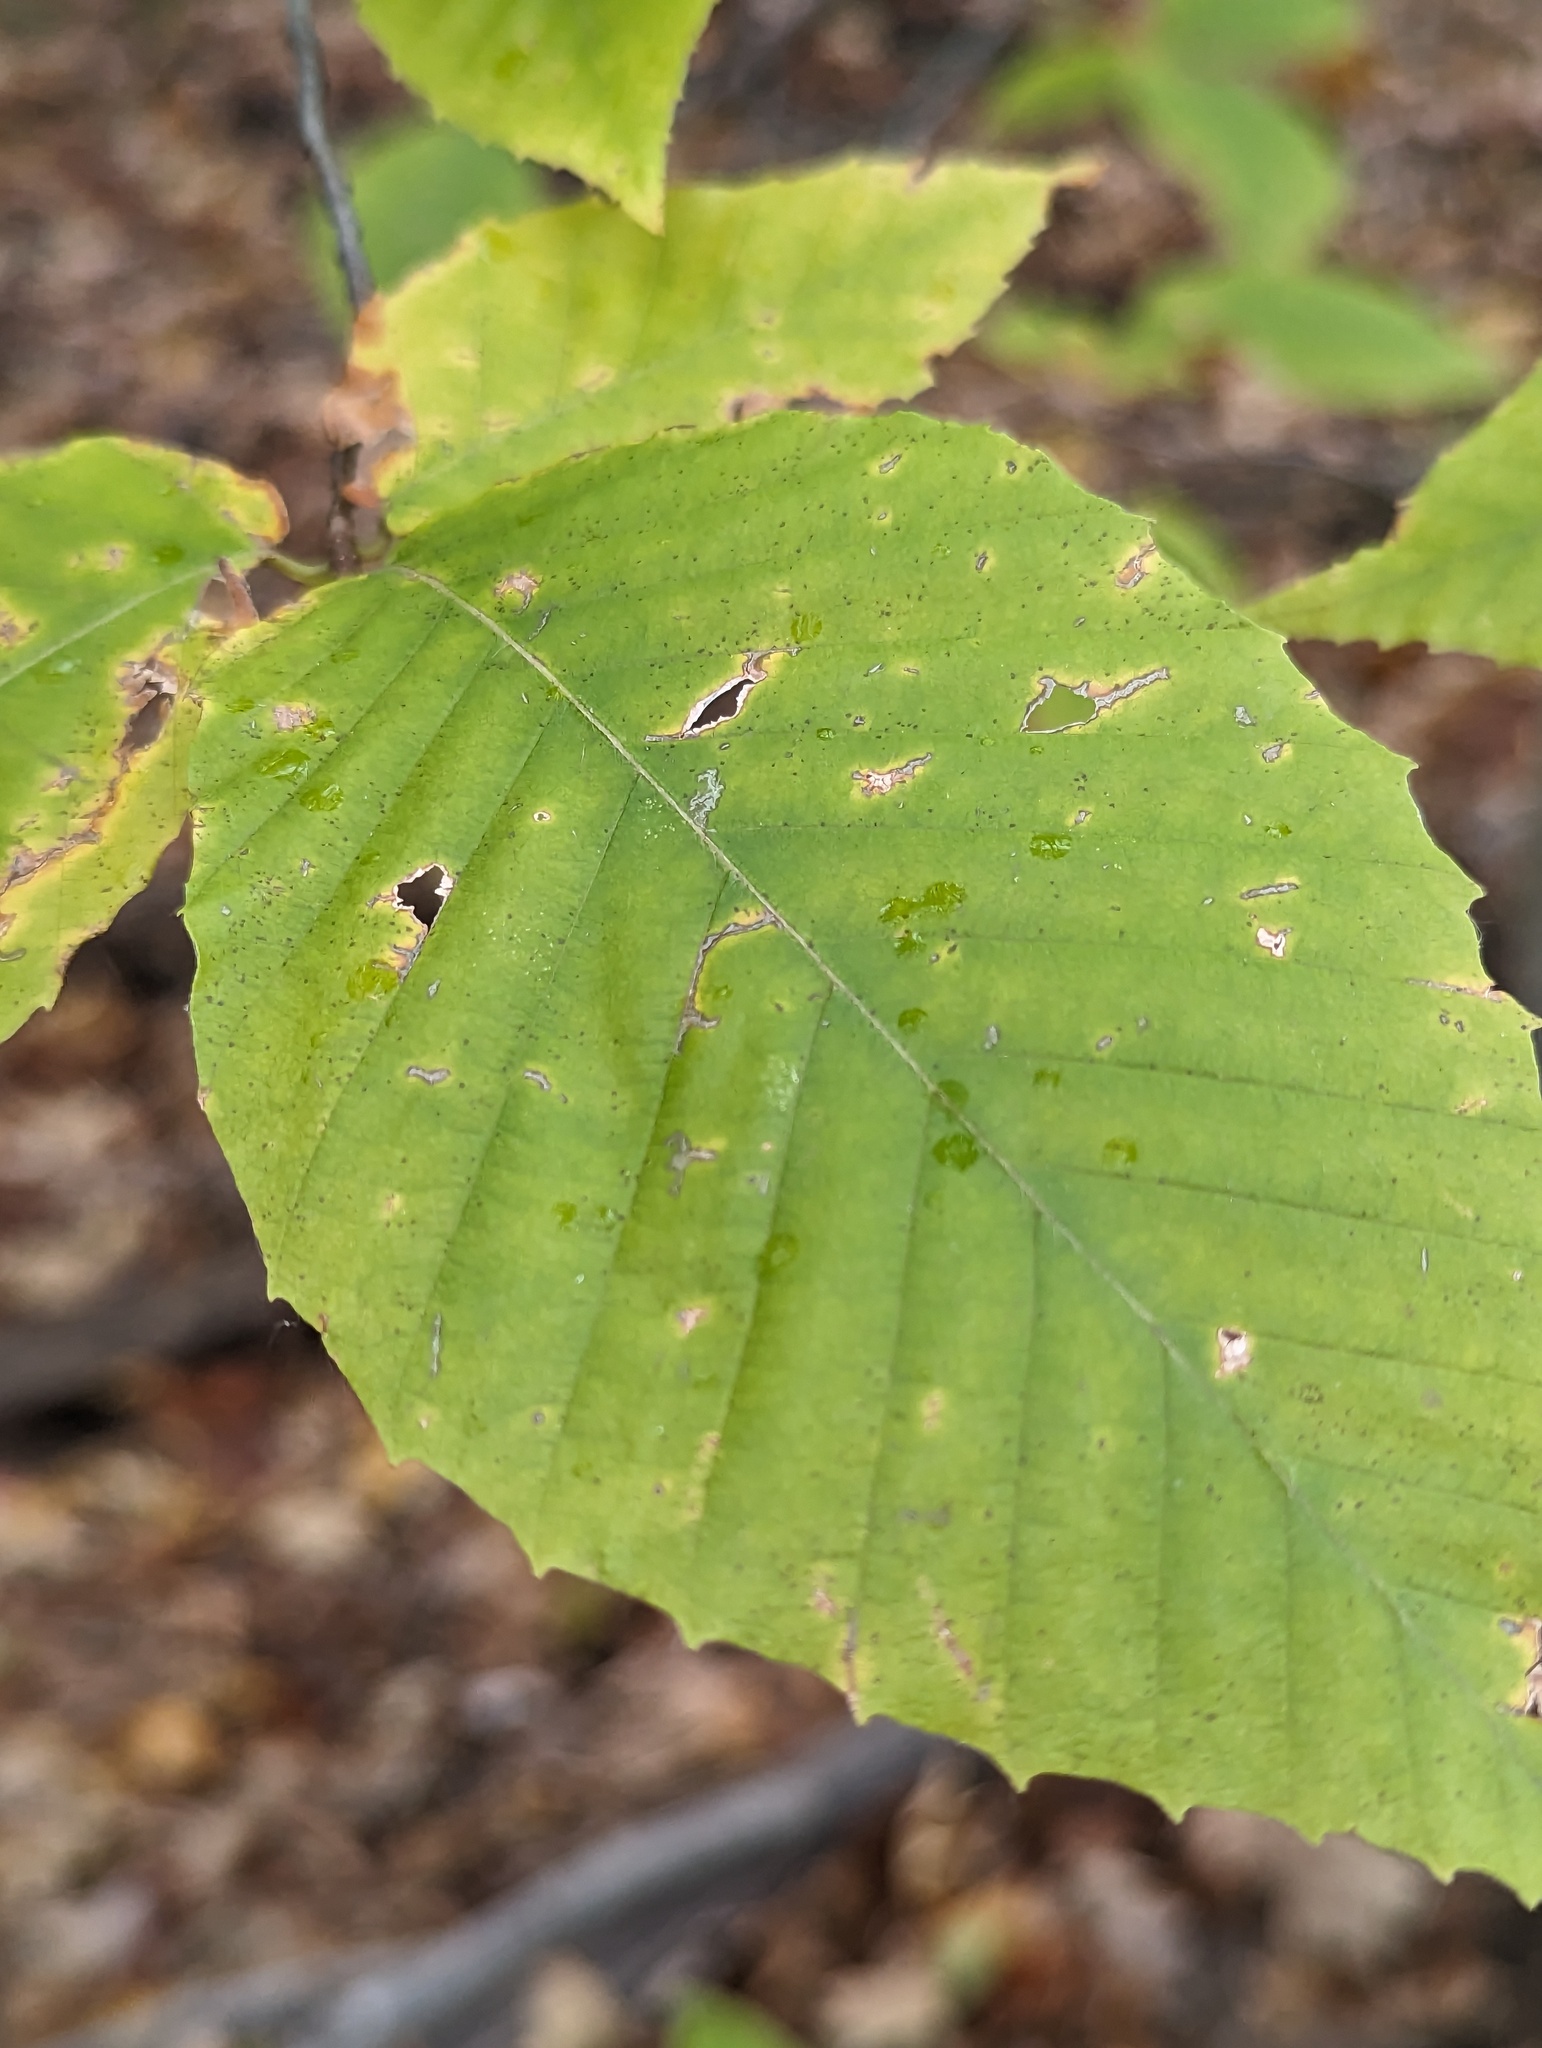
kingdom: Plantae
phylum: Tracheophyta
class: Magnoliopsida
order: Fagales
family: Fagaceae
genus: Fagus
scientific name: Fagus grandifolia
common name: American beech
